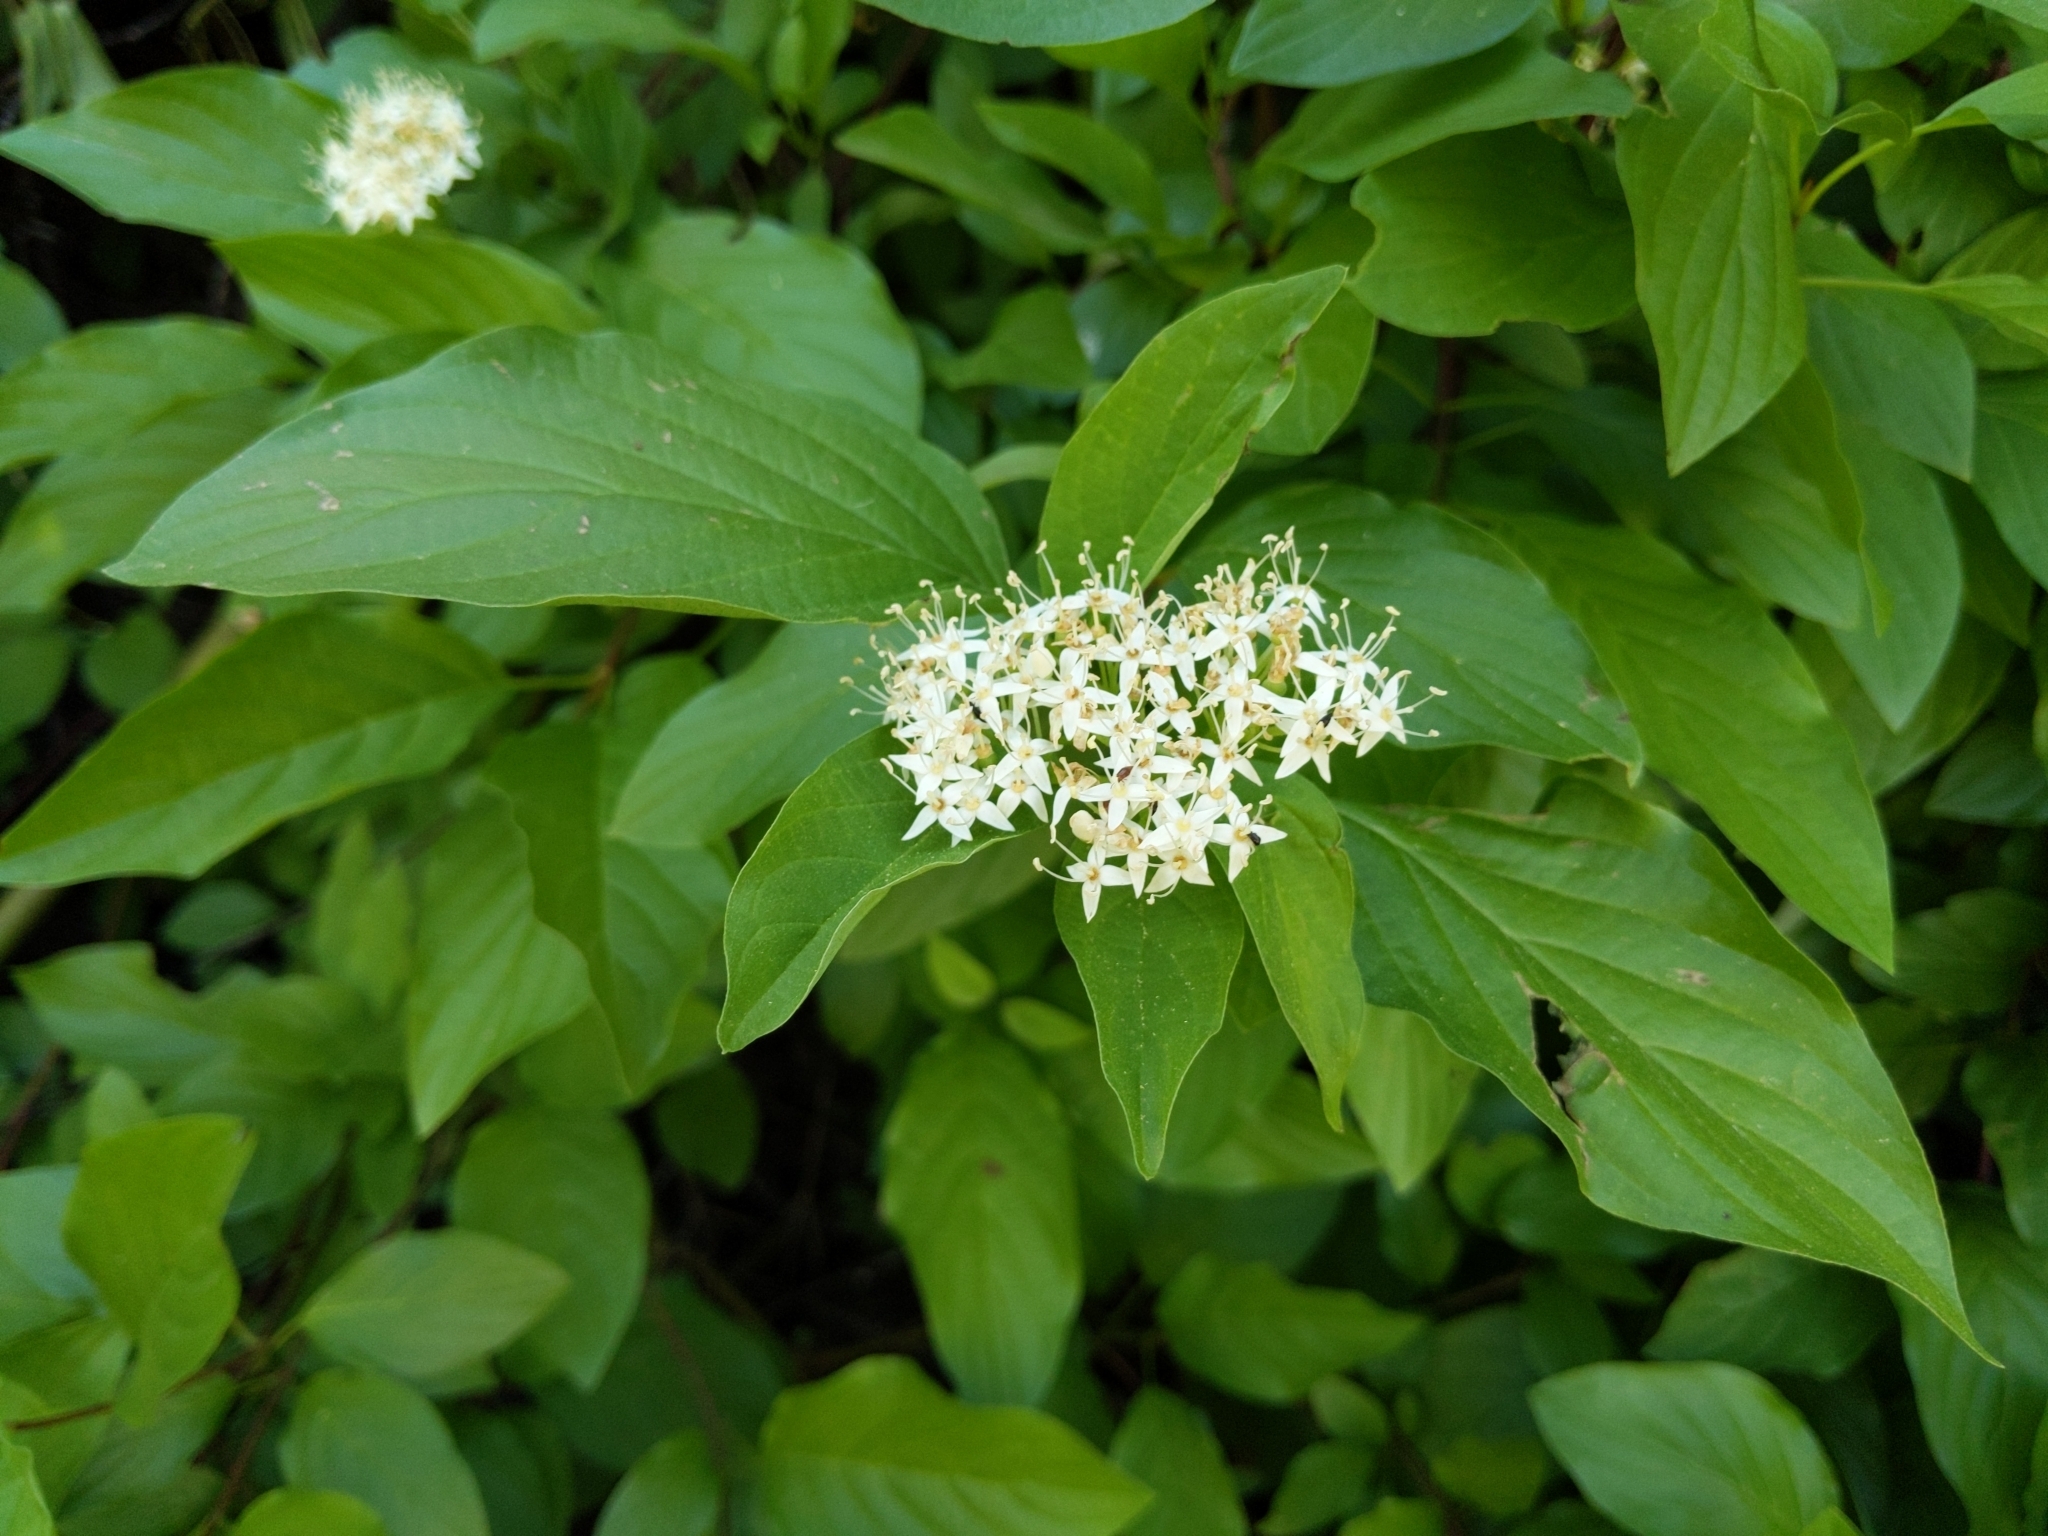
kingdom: Plantae
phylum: Tracheophyta
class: Magnoliopsida
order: Cornales
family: Cornaceae
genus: Cornus
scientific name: Cornus sericea
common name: Red-osier dogwood
